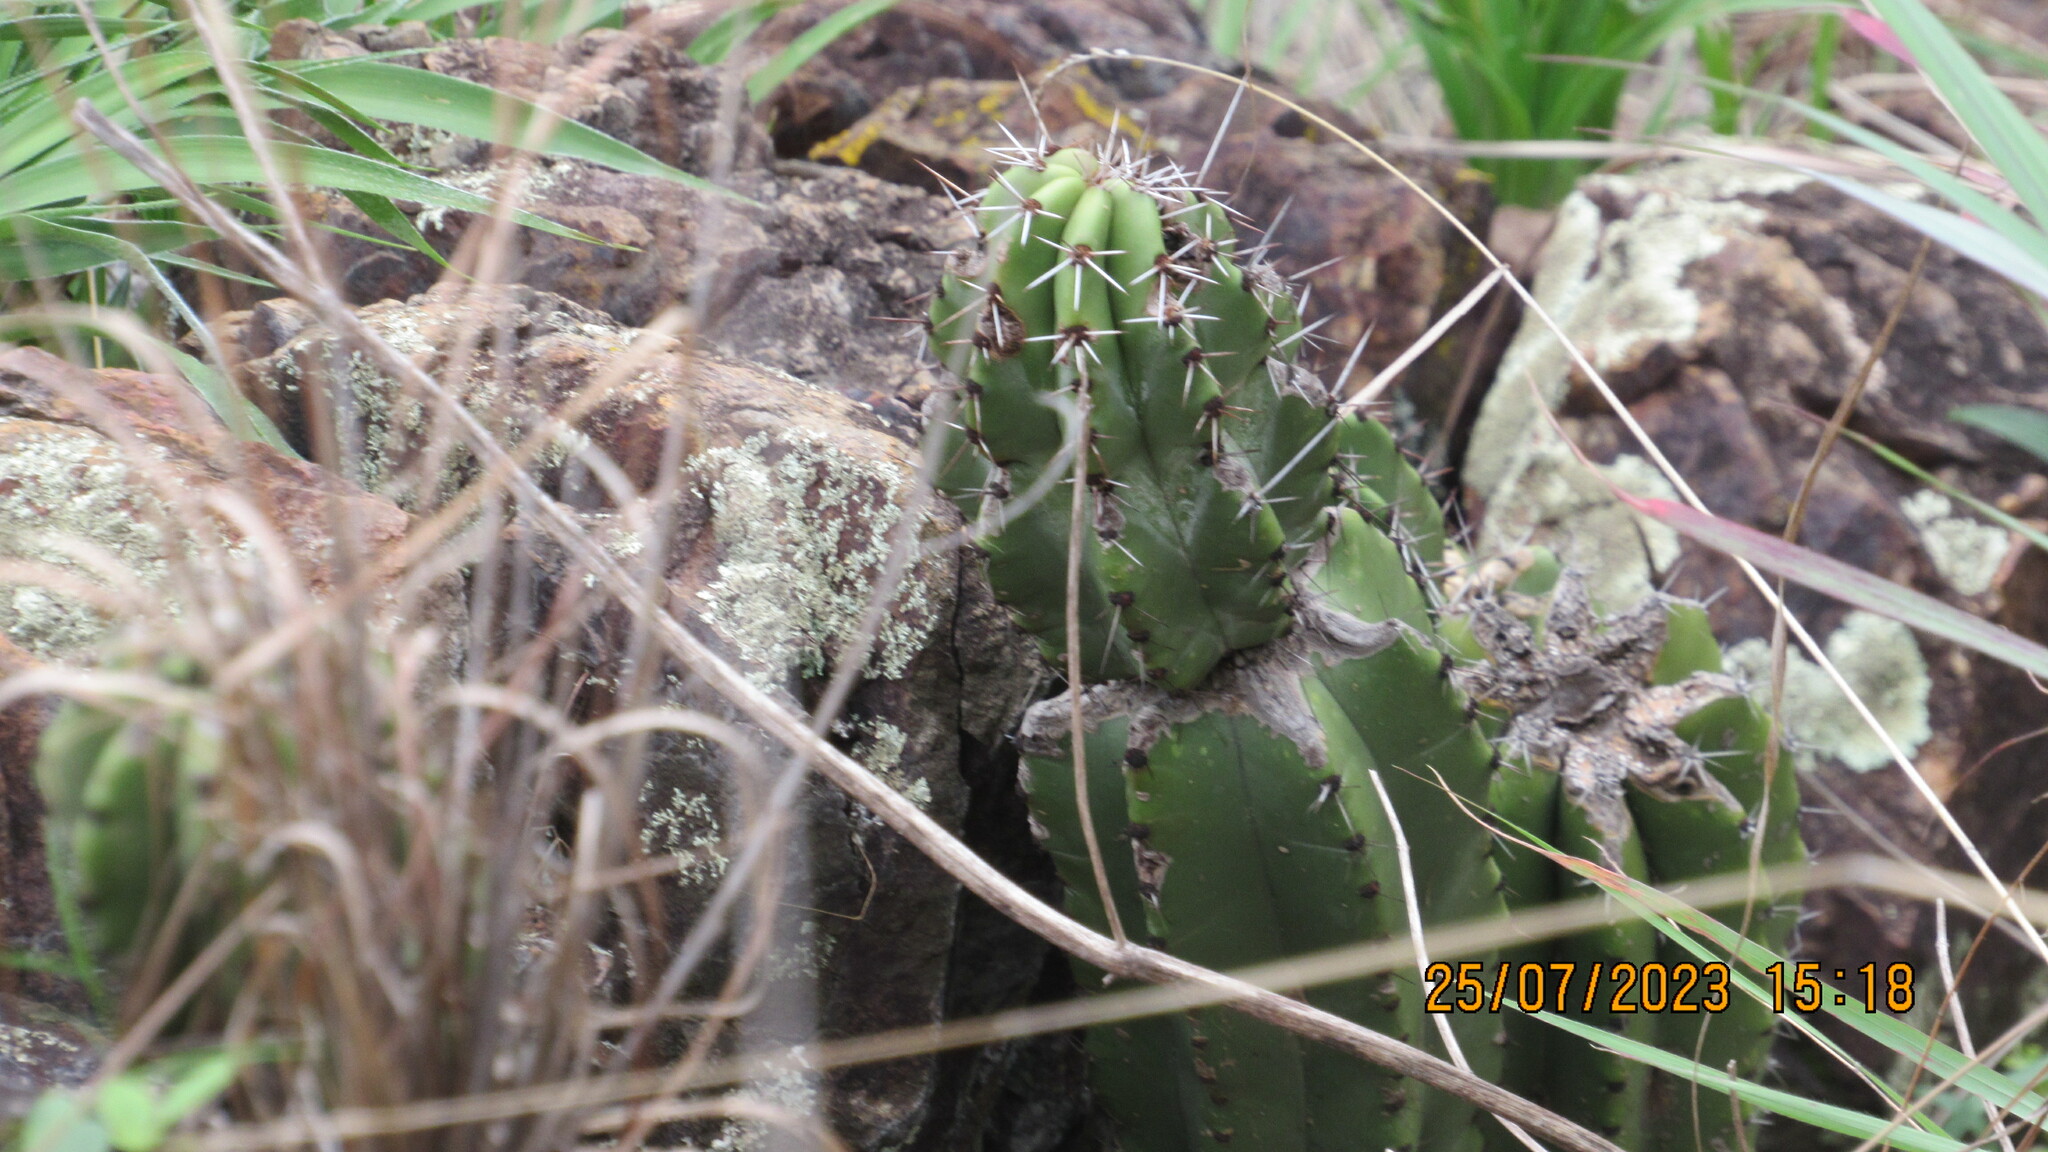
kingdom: Plantae
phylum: Tracheophyta
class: Magnoliopsida
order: Caryophyllales
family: Cactaceae
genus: Stenocereus
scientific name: Stenocereus queretaroensis
